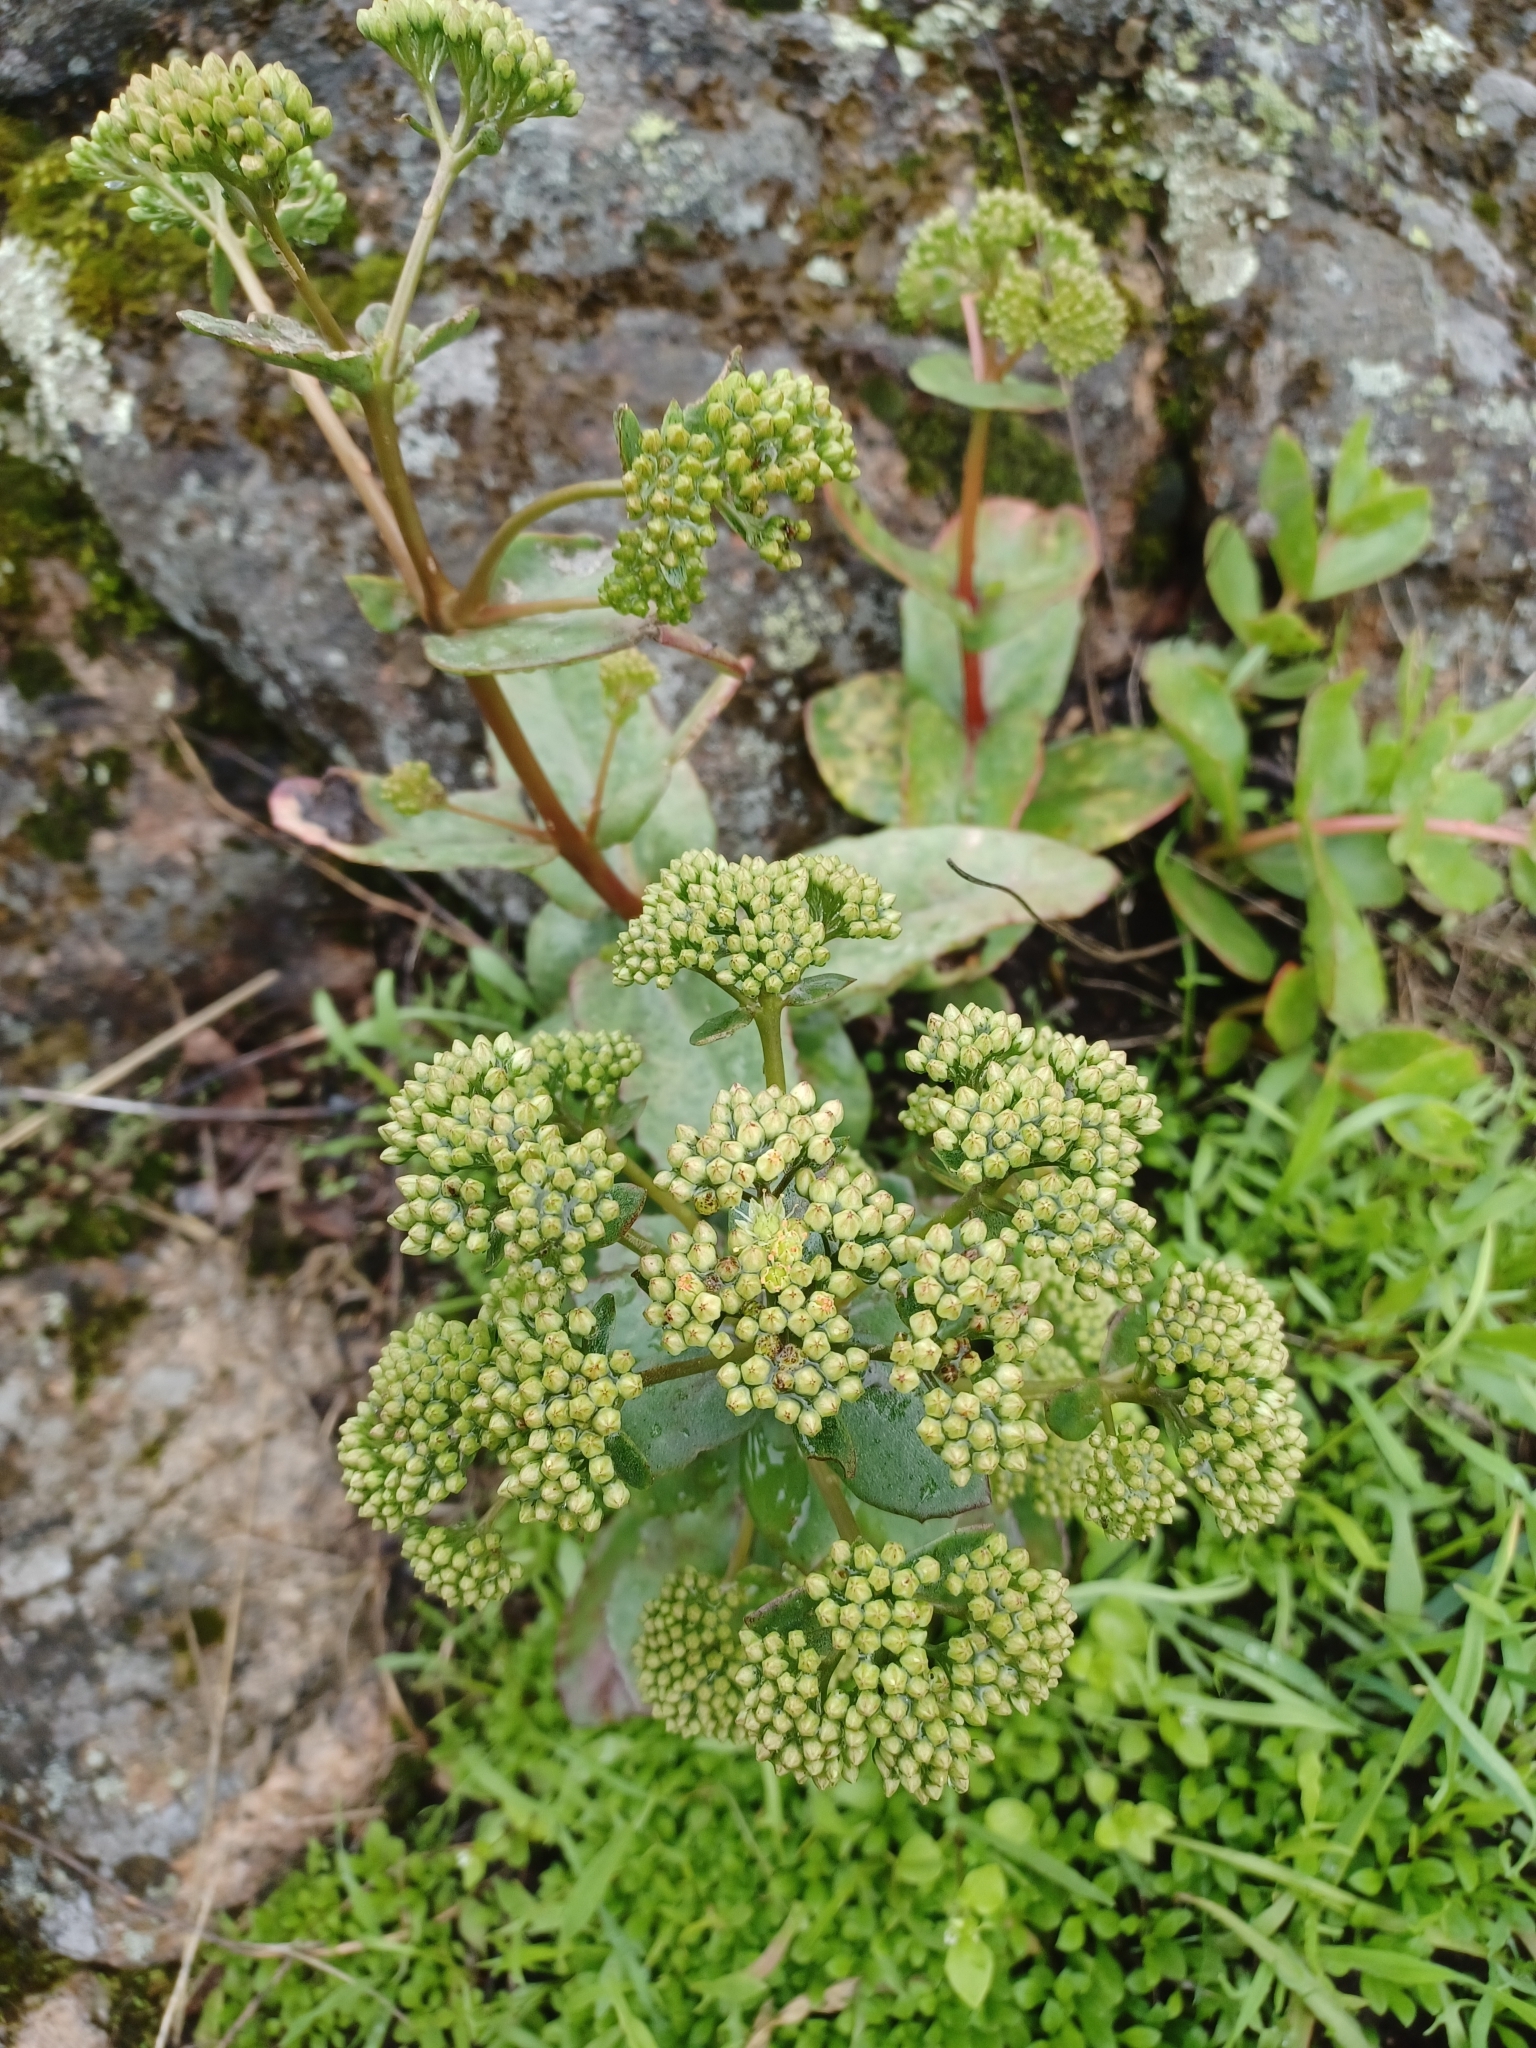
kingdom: Plantae
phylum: Tracheophyta
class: Magnoliopsida
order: Saxifragales
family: Crassulaceae
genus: Hylotelephium
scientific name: Hylotelephium maximum
